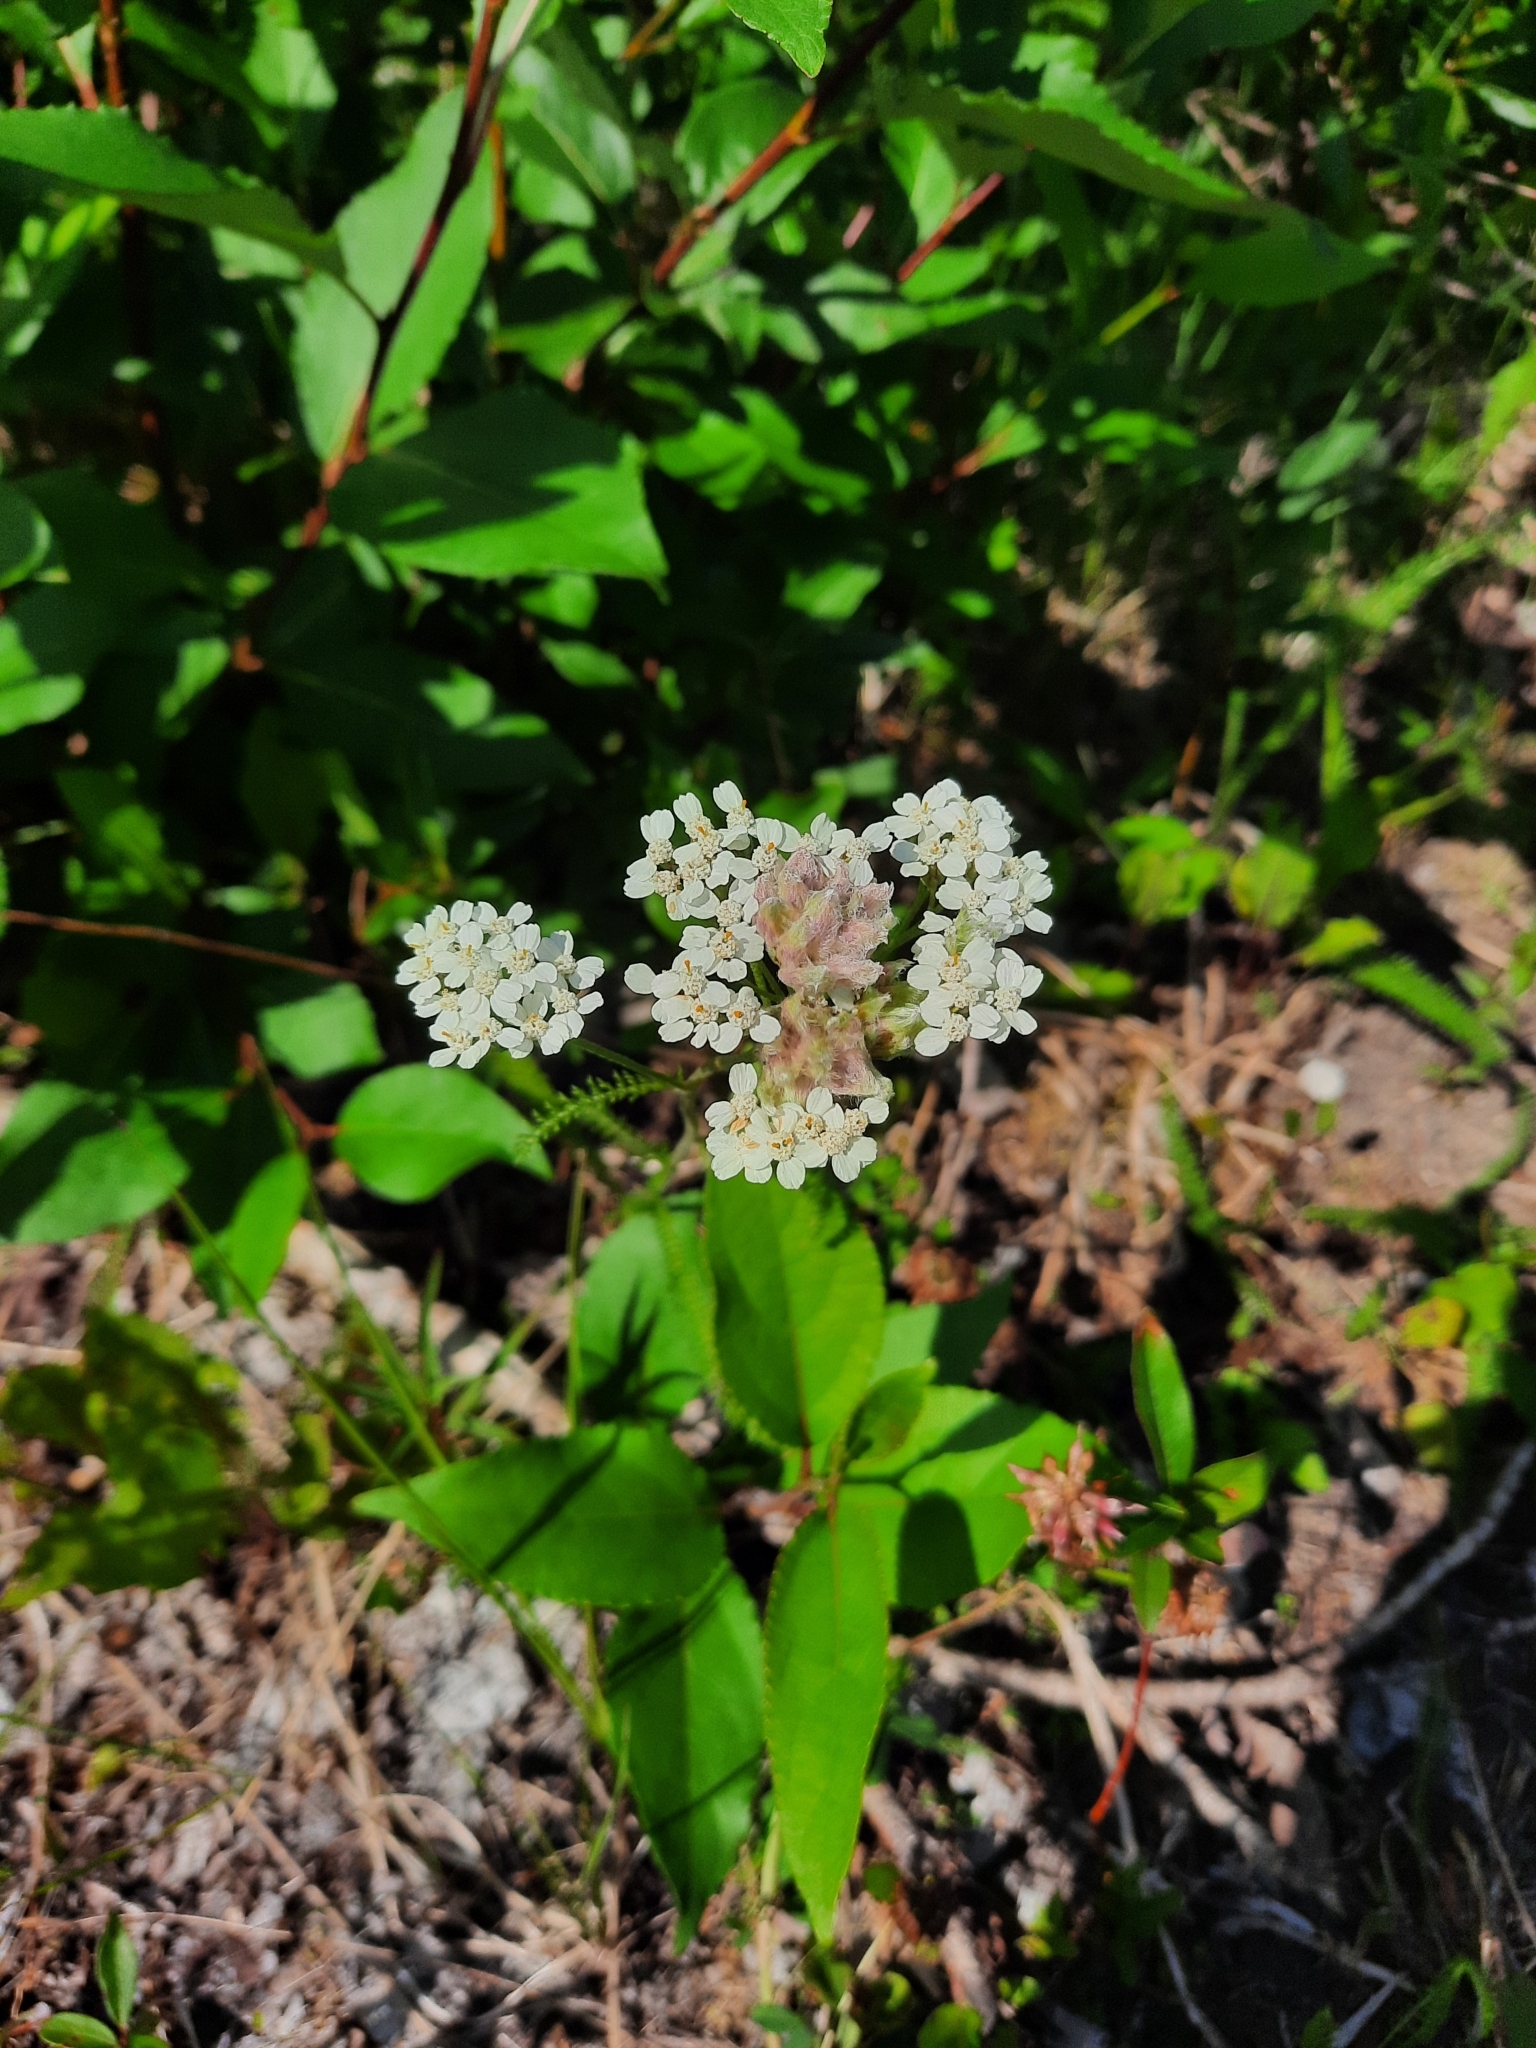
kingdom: Plantae
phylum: Tracheophyta
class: Magnoliopsida
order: Asterales
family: Asteraceae
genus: Achillea
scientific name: Achillea millefolium
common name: Yarrow
